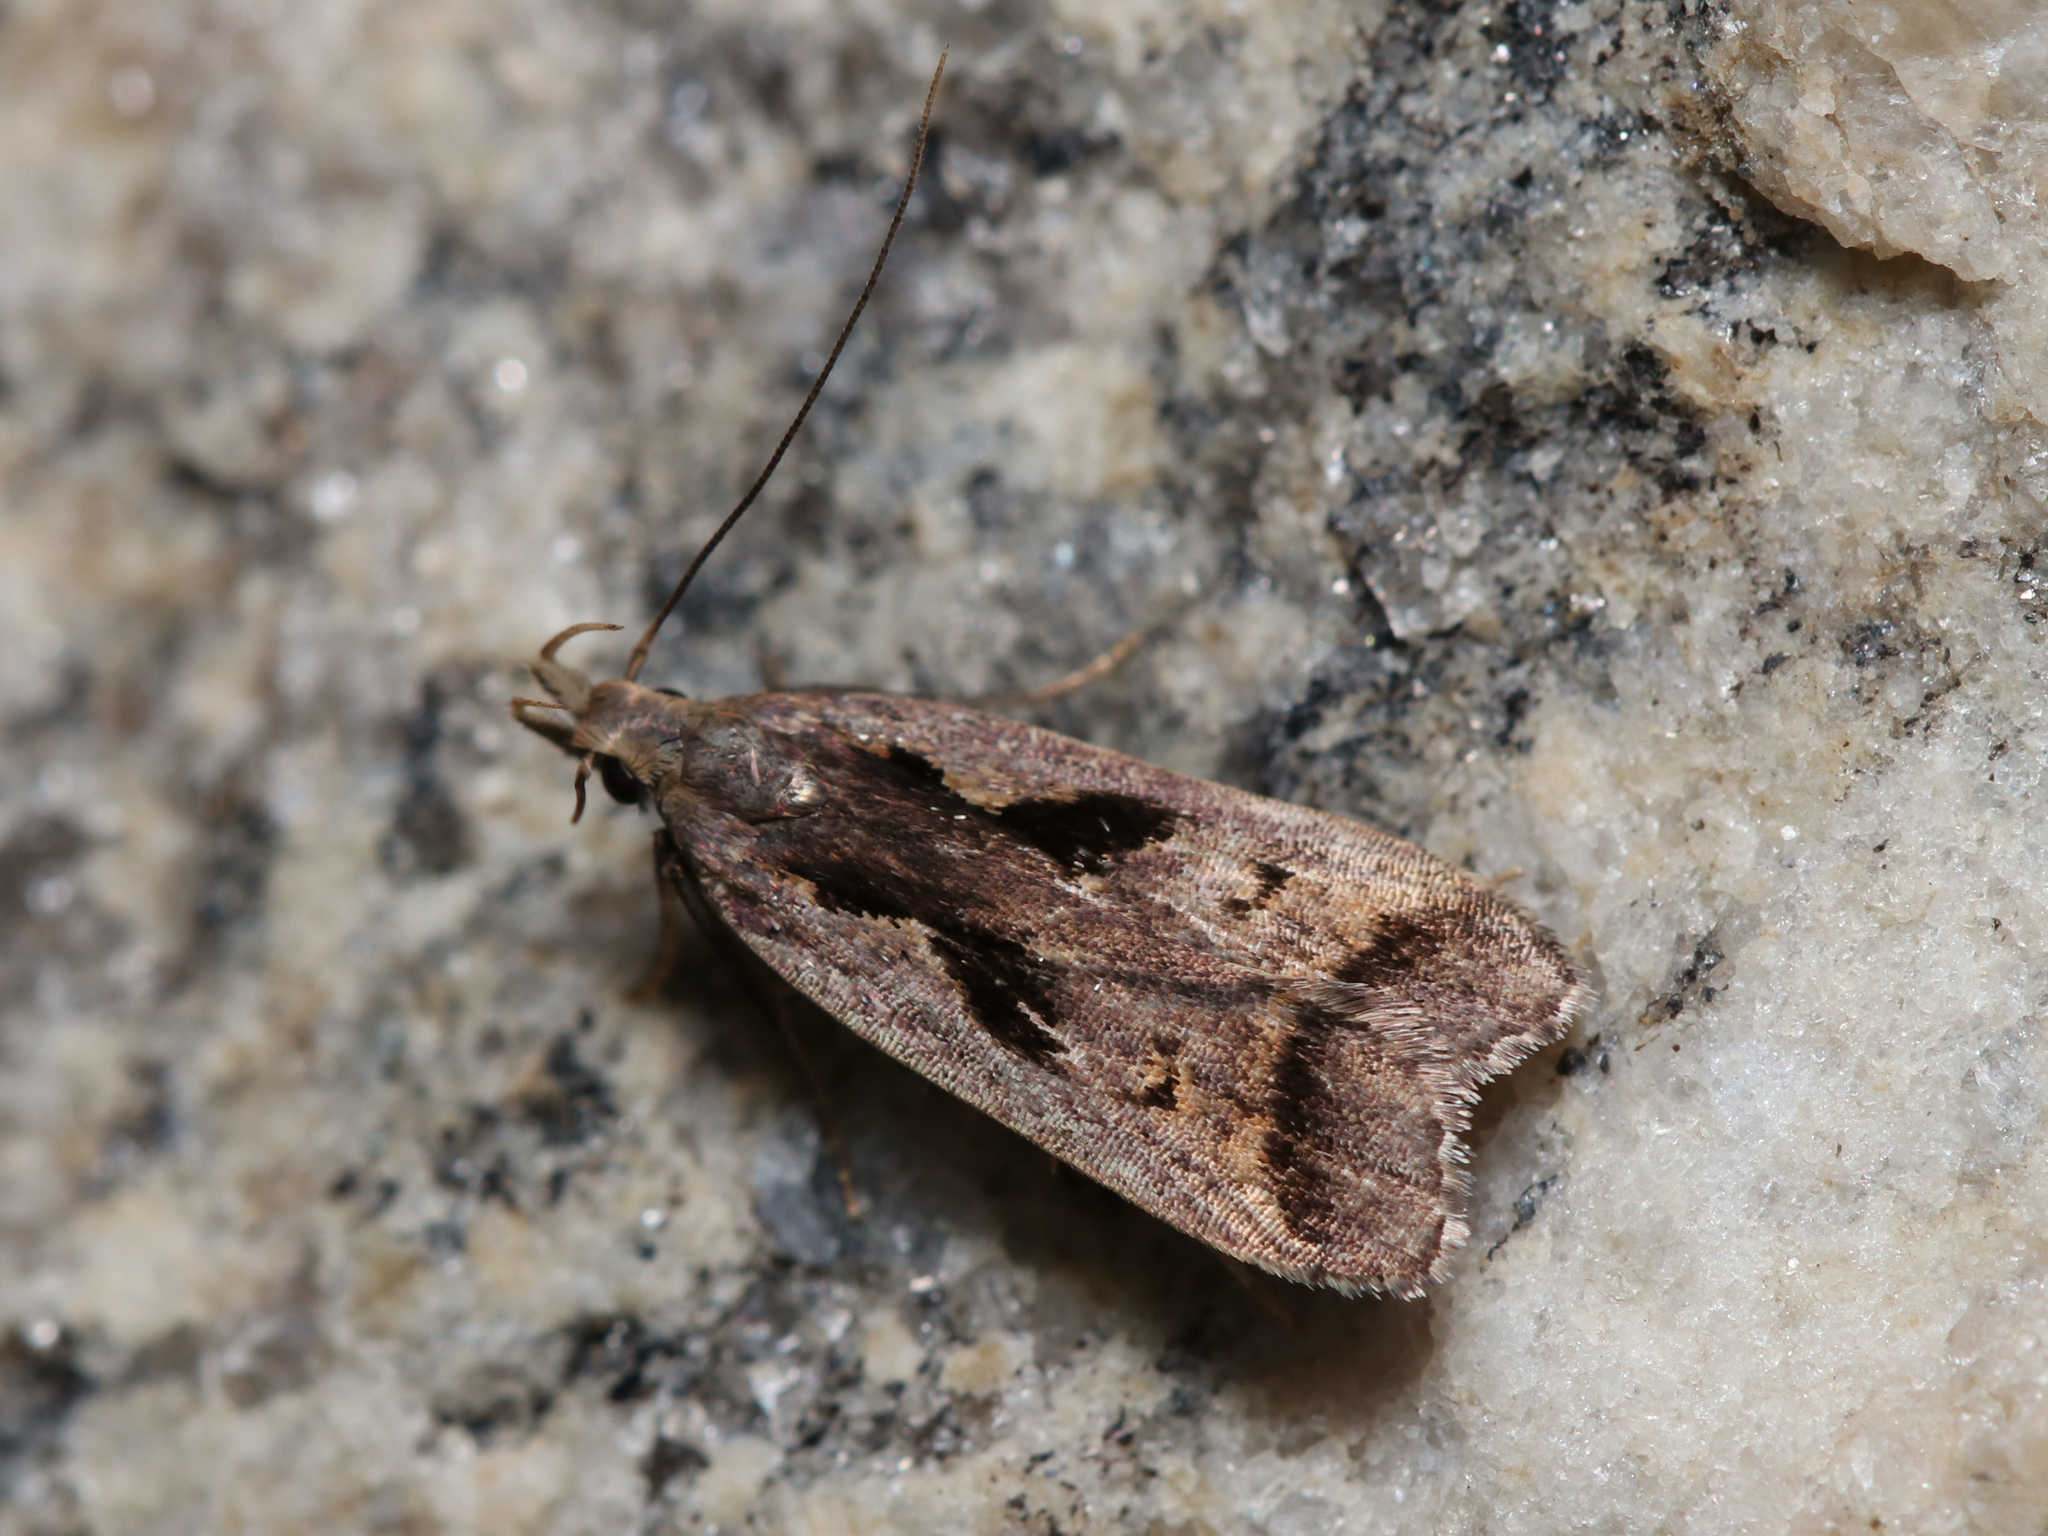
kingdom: Animalia
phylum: Arthropoda
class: Insecta
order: Lepidoptera
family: Gelechiidae
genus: Dichomeris
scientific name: Dichomeris bilobella
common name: Bilobed dichomeris moth
